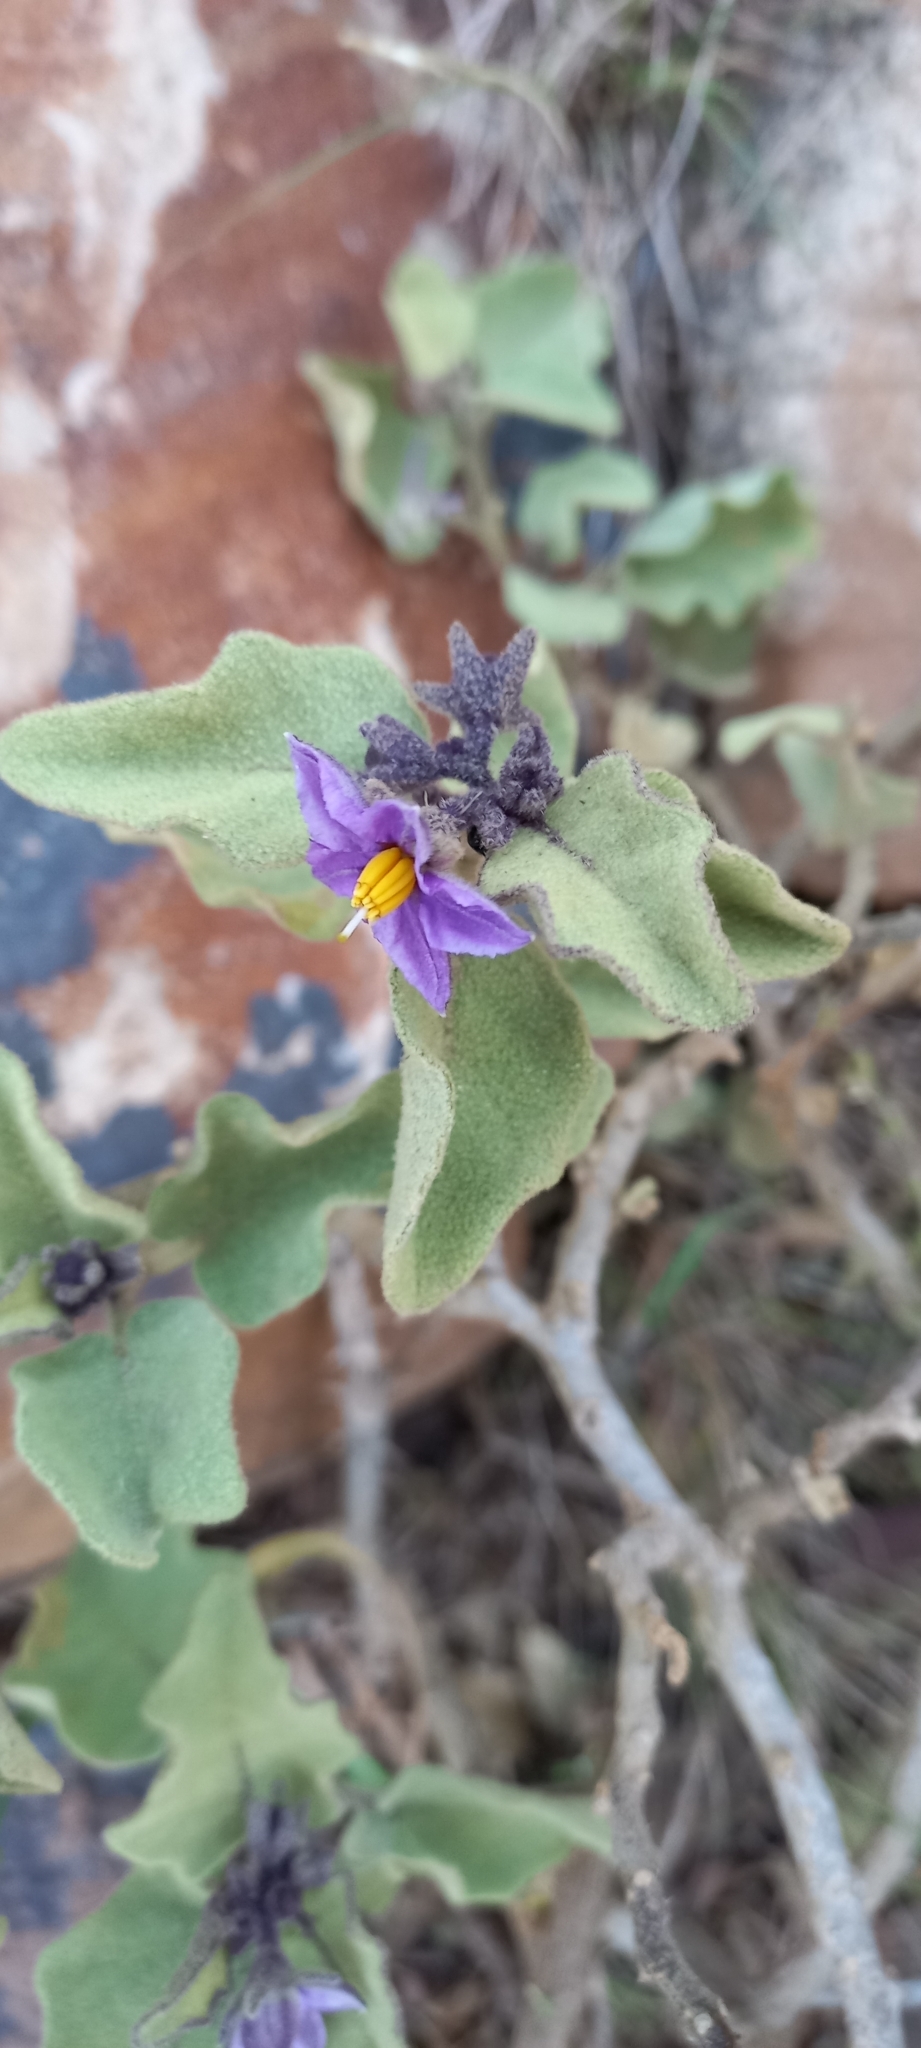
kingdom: Plantae
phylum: Tracheophyta
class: Magnoliopsida
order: Solanales
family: Solanaceae
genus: Solanum
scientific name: Solanum tomentosum
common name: Wild aubergine
